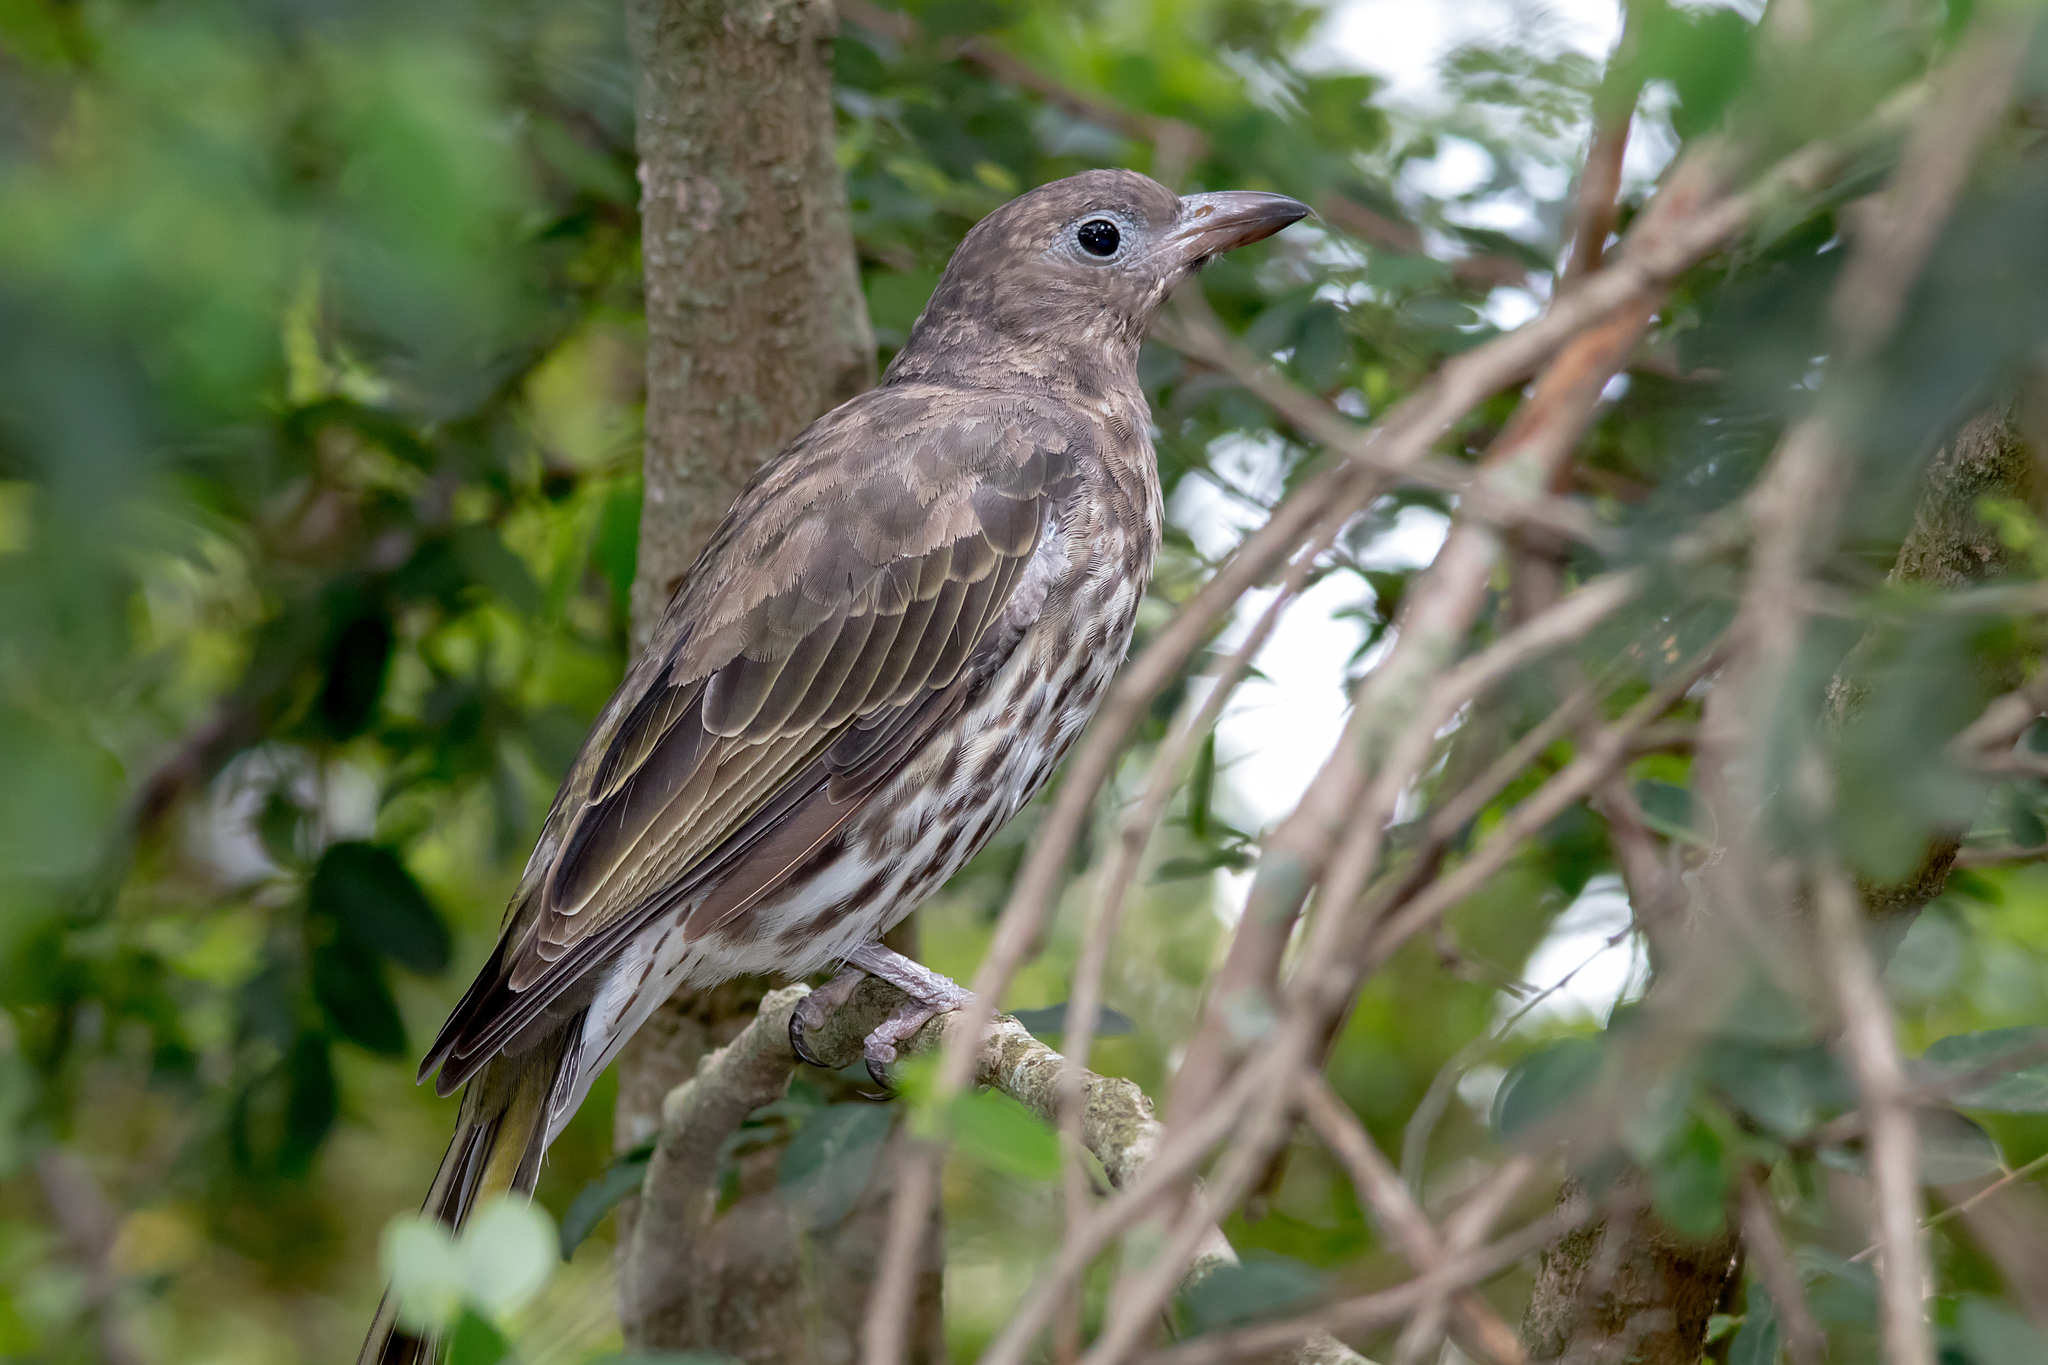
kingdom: Animalia
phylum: Chordata
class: Aves
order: Passeriformes
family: Oriolidae
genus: Sphecotheres
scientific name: Sphecotheres vieilloti
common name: Australasian figbird
